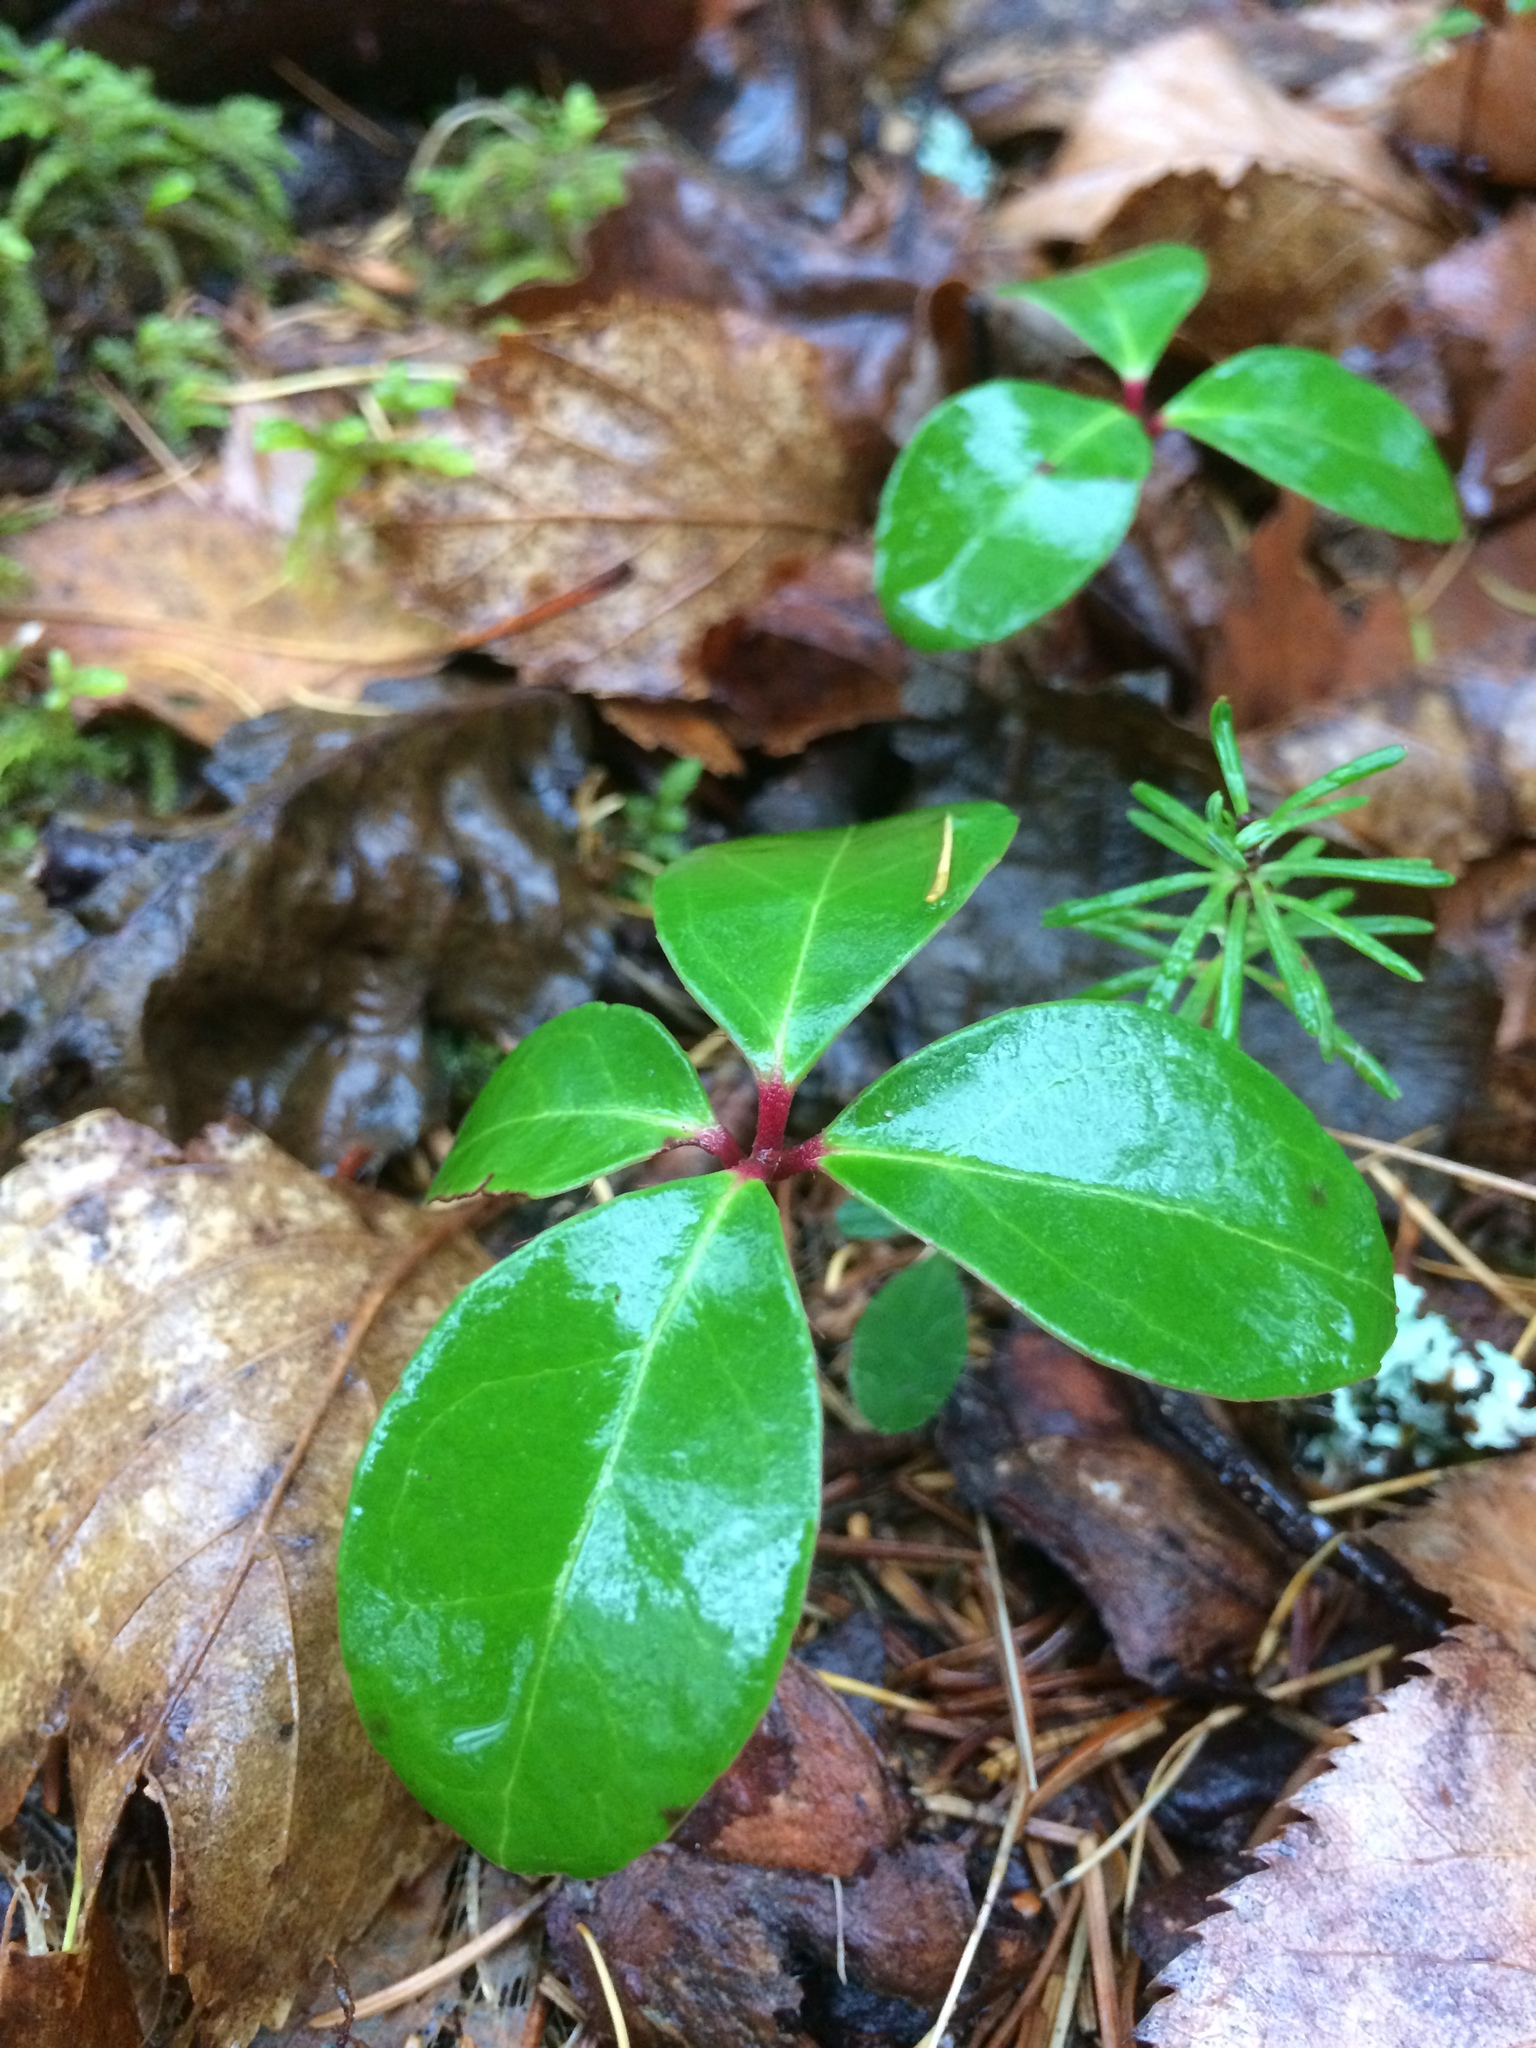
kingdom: Plantae
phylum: Tracheophyta
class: Magnoliopsida
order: Ericales
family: Ericaceae
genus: Gaultheria
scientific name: Gaultheria procumbens
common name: Checkerberry
